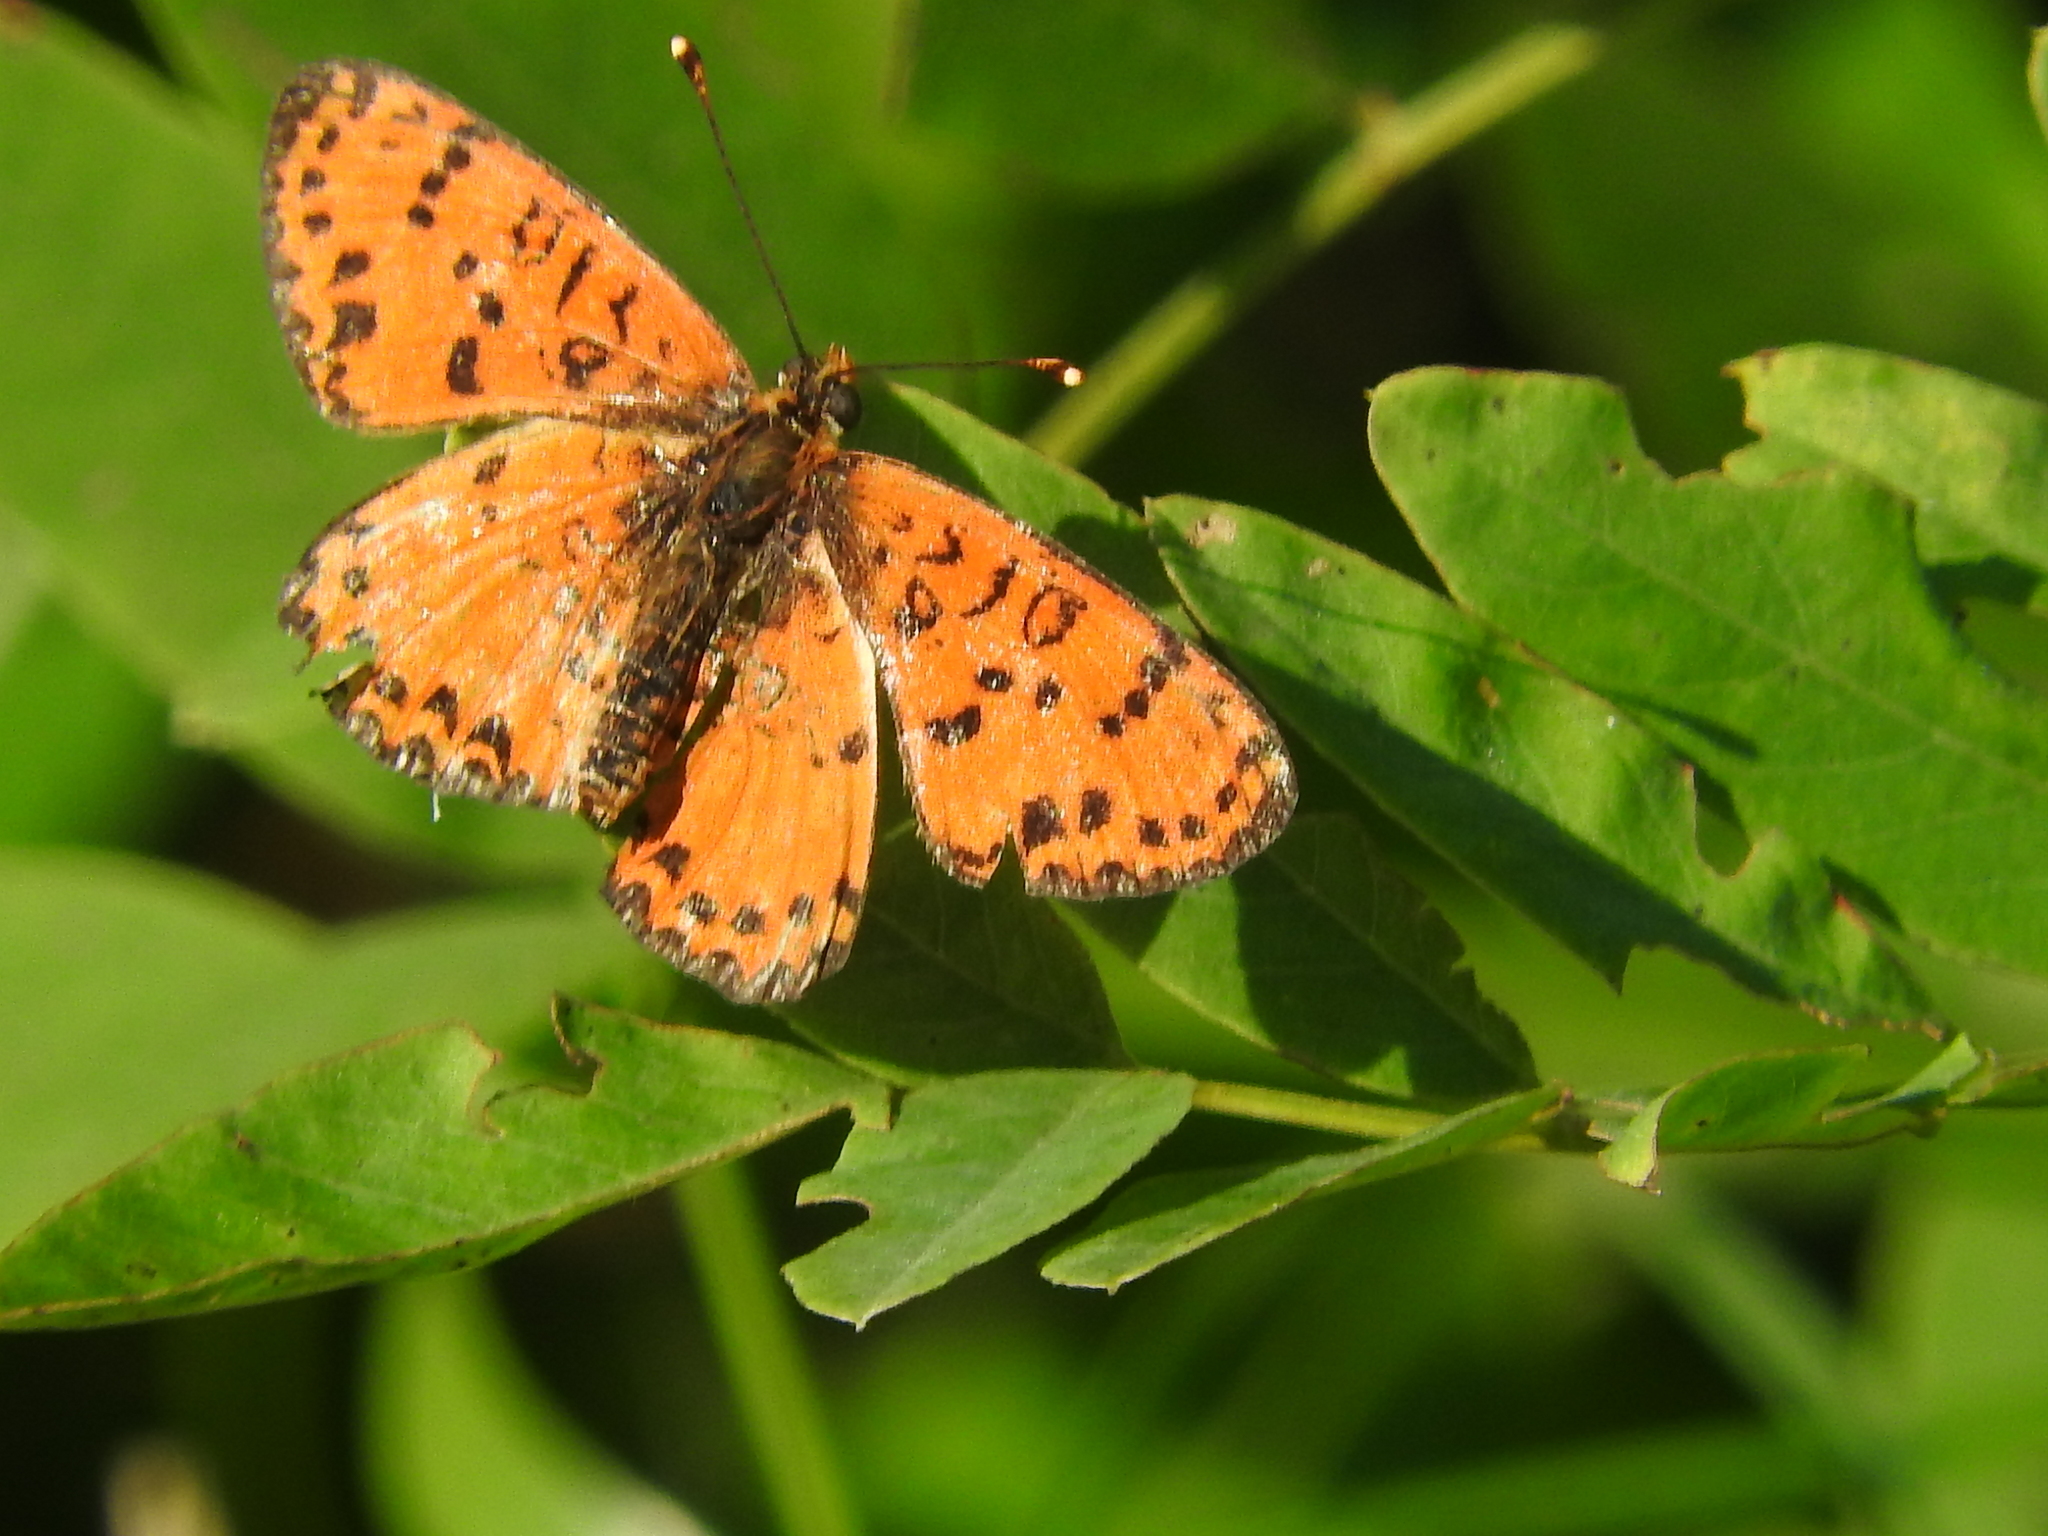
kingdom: Animalia
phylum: Arthropoda
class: Insecta
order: Lepidoptera
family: Nymphalidae
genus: Melitaea
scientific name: Melitaea didyma
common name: Spotted fritillary
